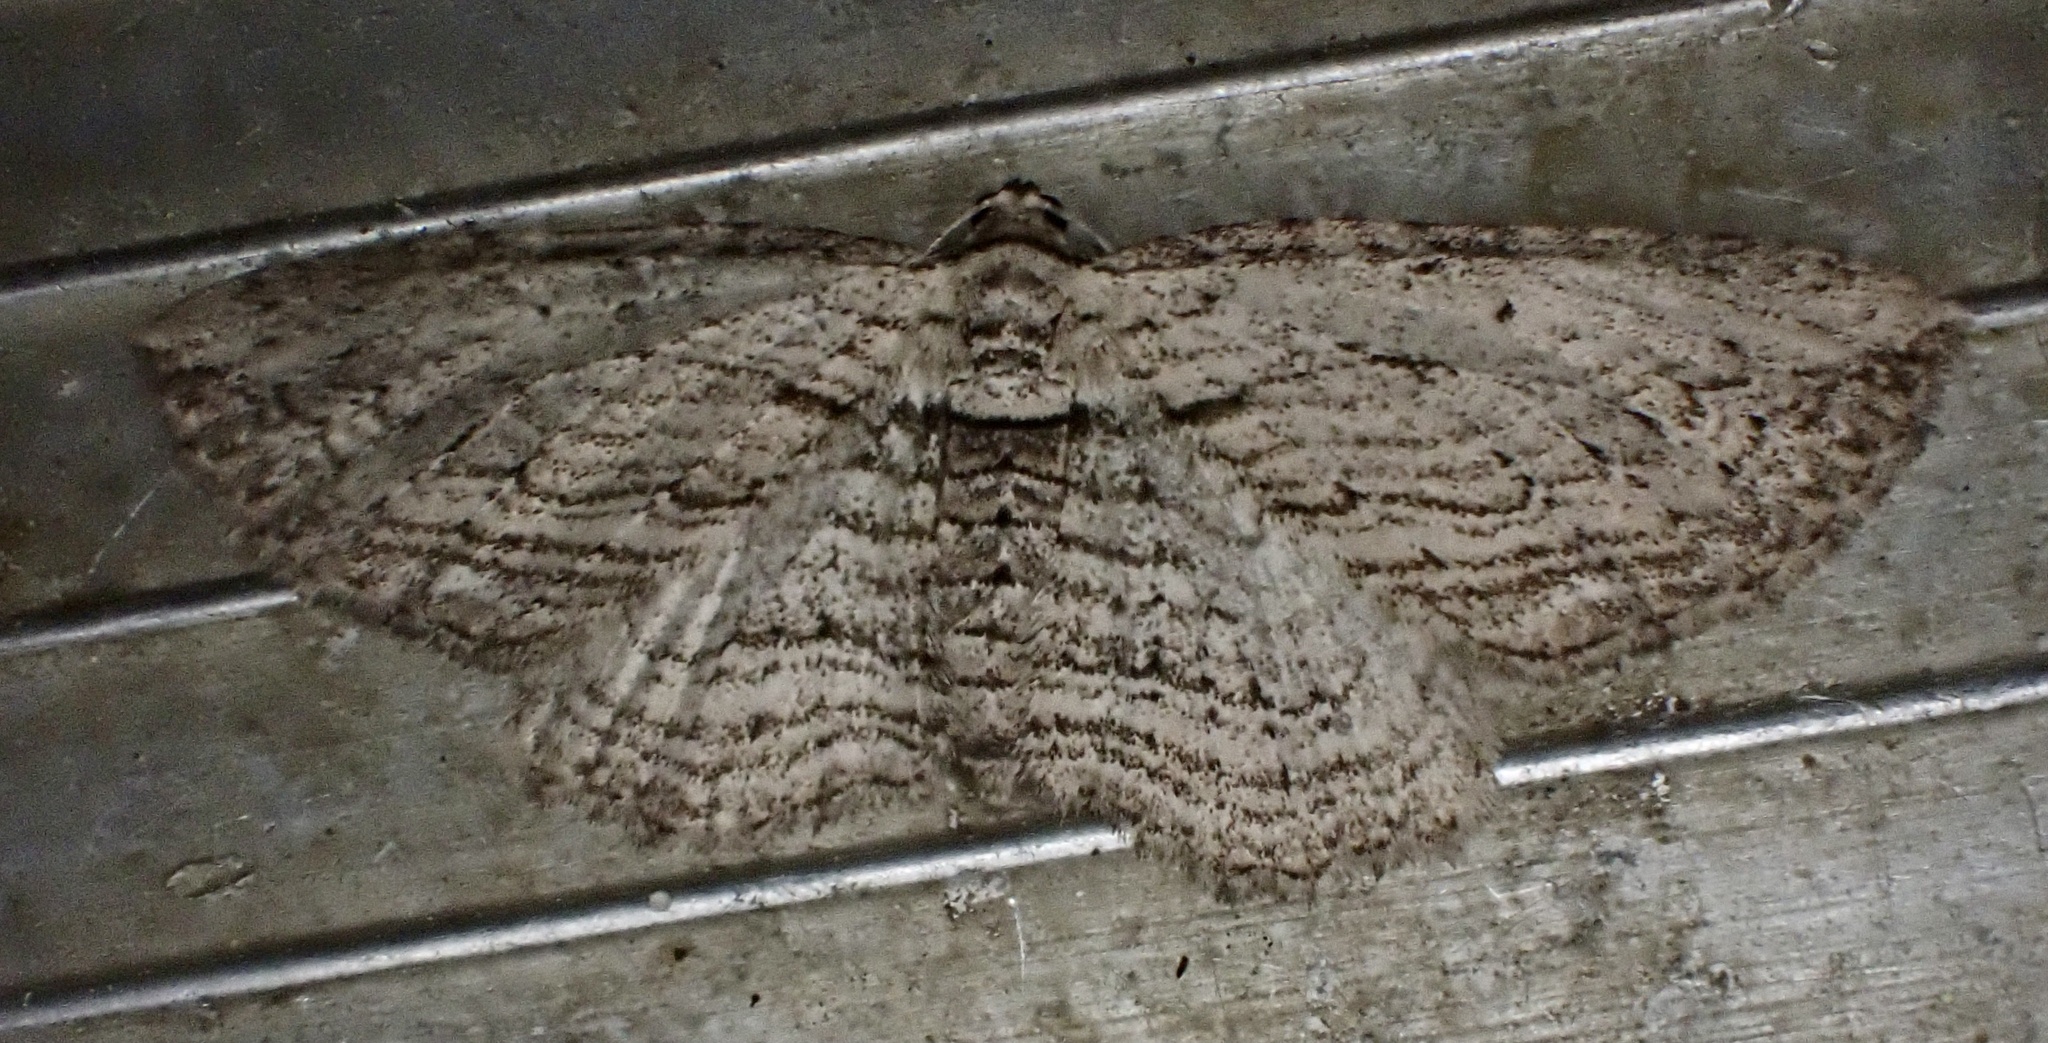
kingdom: Animalia
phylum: Arthropoda
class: Insecta
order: Lepidoptera
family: Geometridae
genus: Horisme
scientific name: Horisme intestinata
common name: Brown bark carpet
